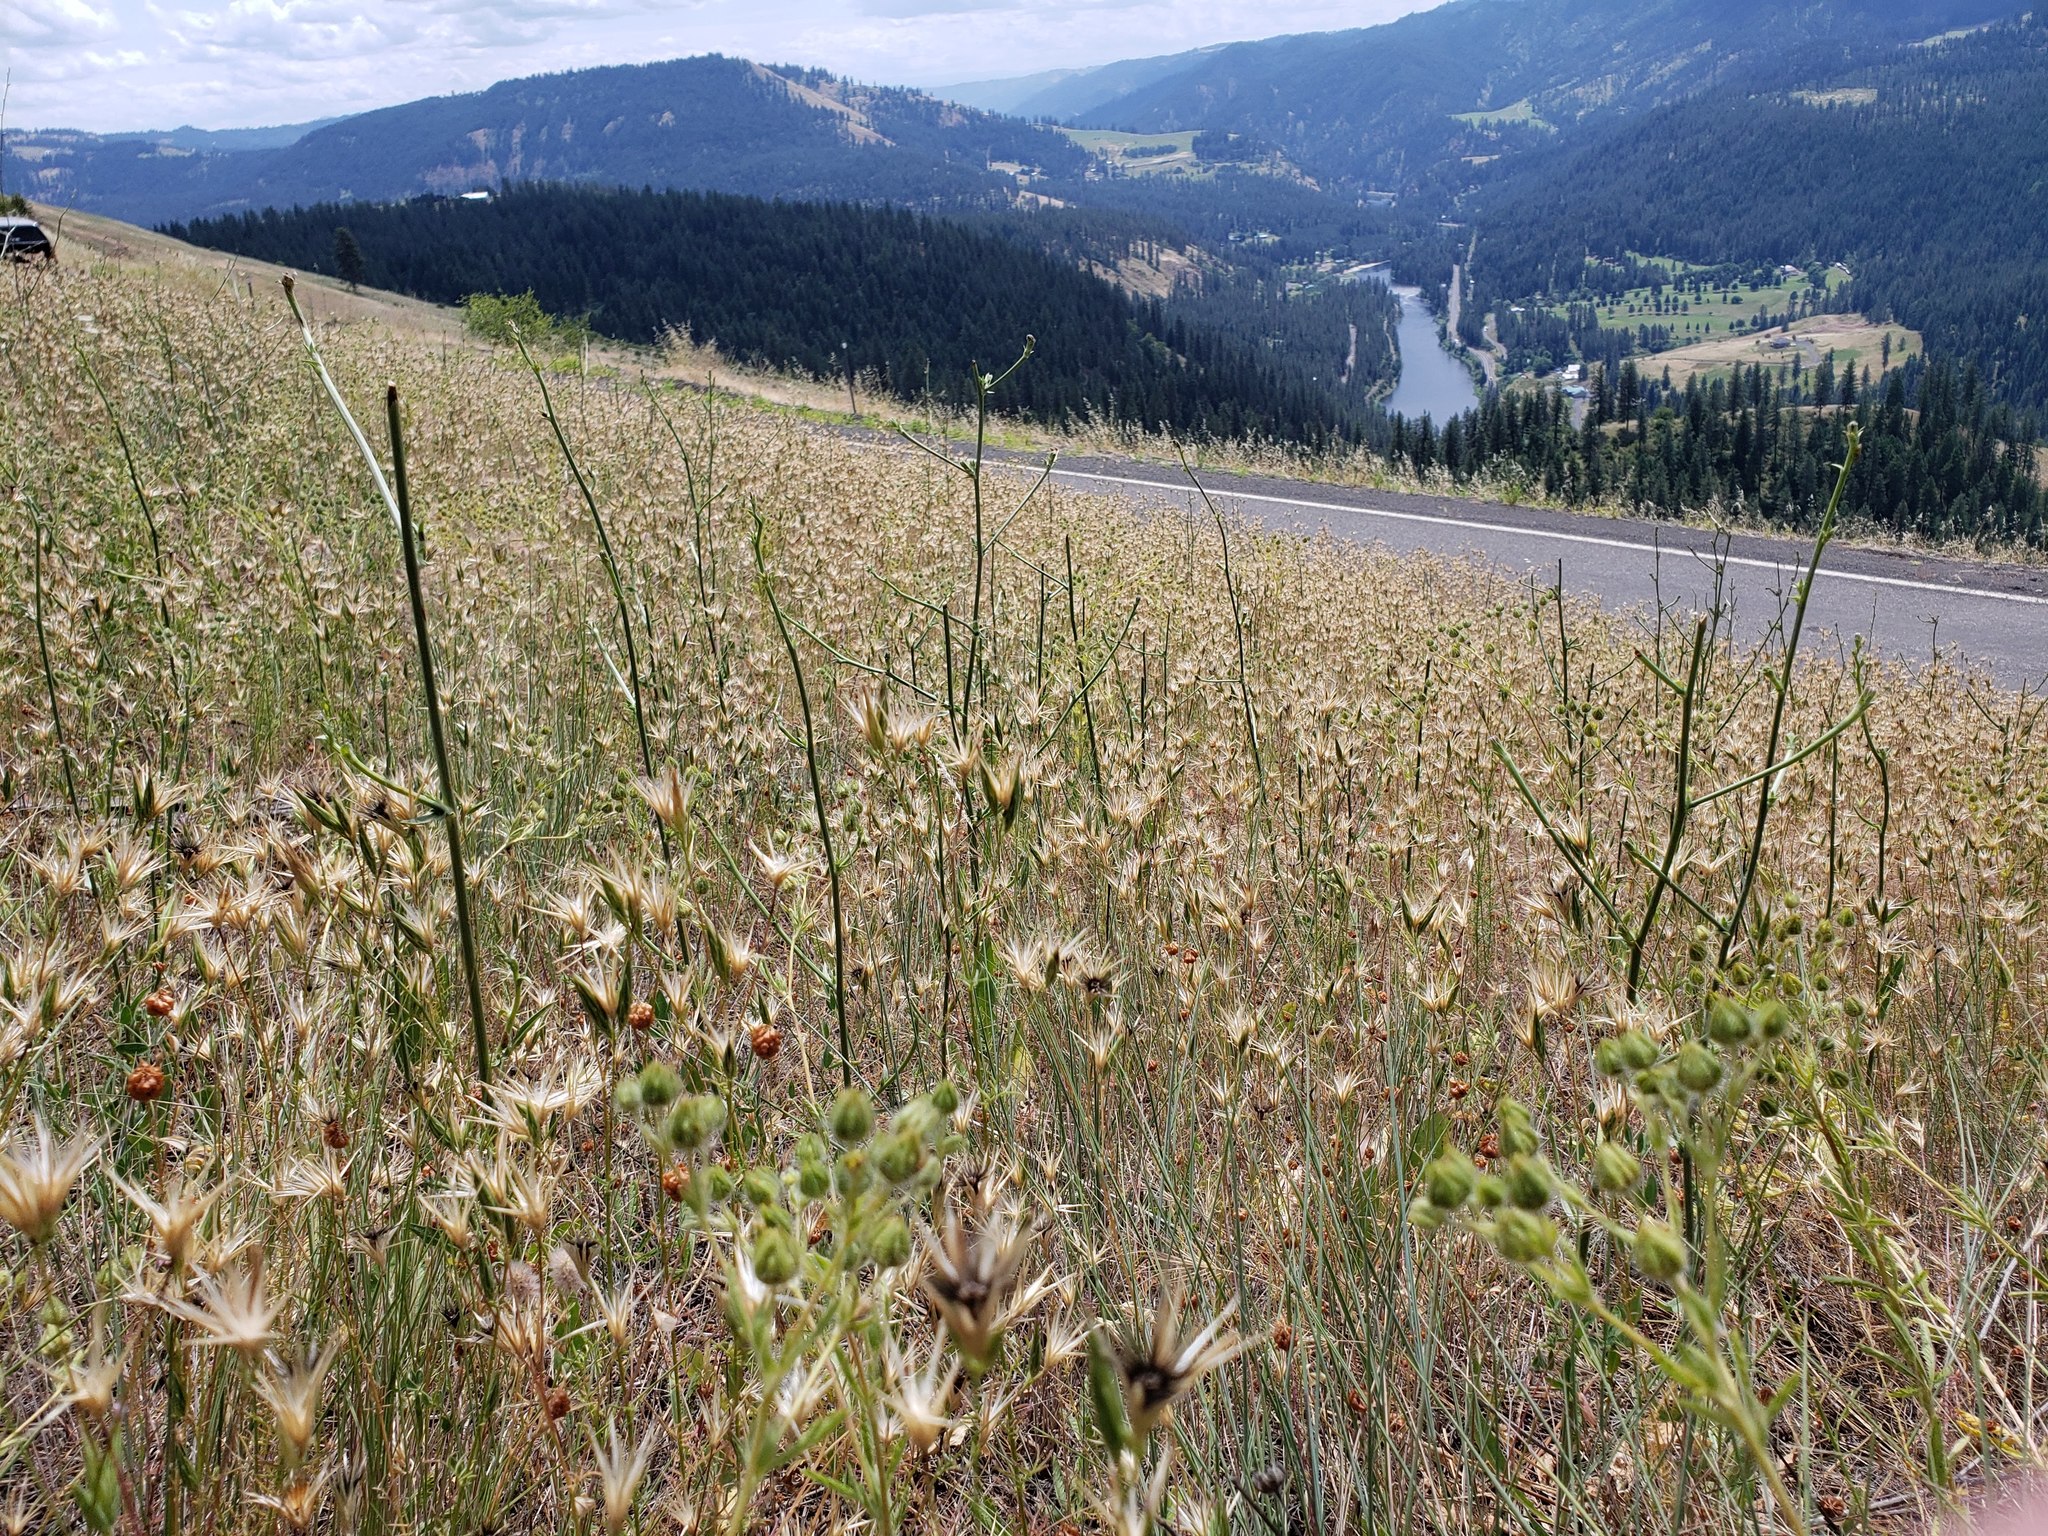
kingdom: Plantae
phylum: Tracheophyta
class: Magnoliopsida
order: Asterales
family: Asteraceae
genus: Crupina
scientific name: Crupina vulgaris
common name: Common crupina
